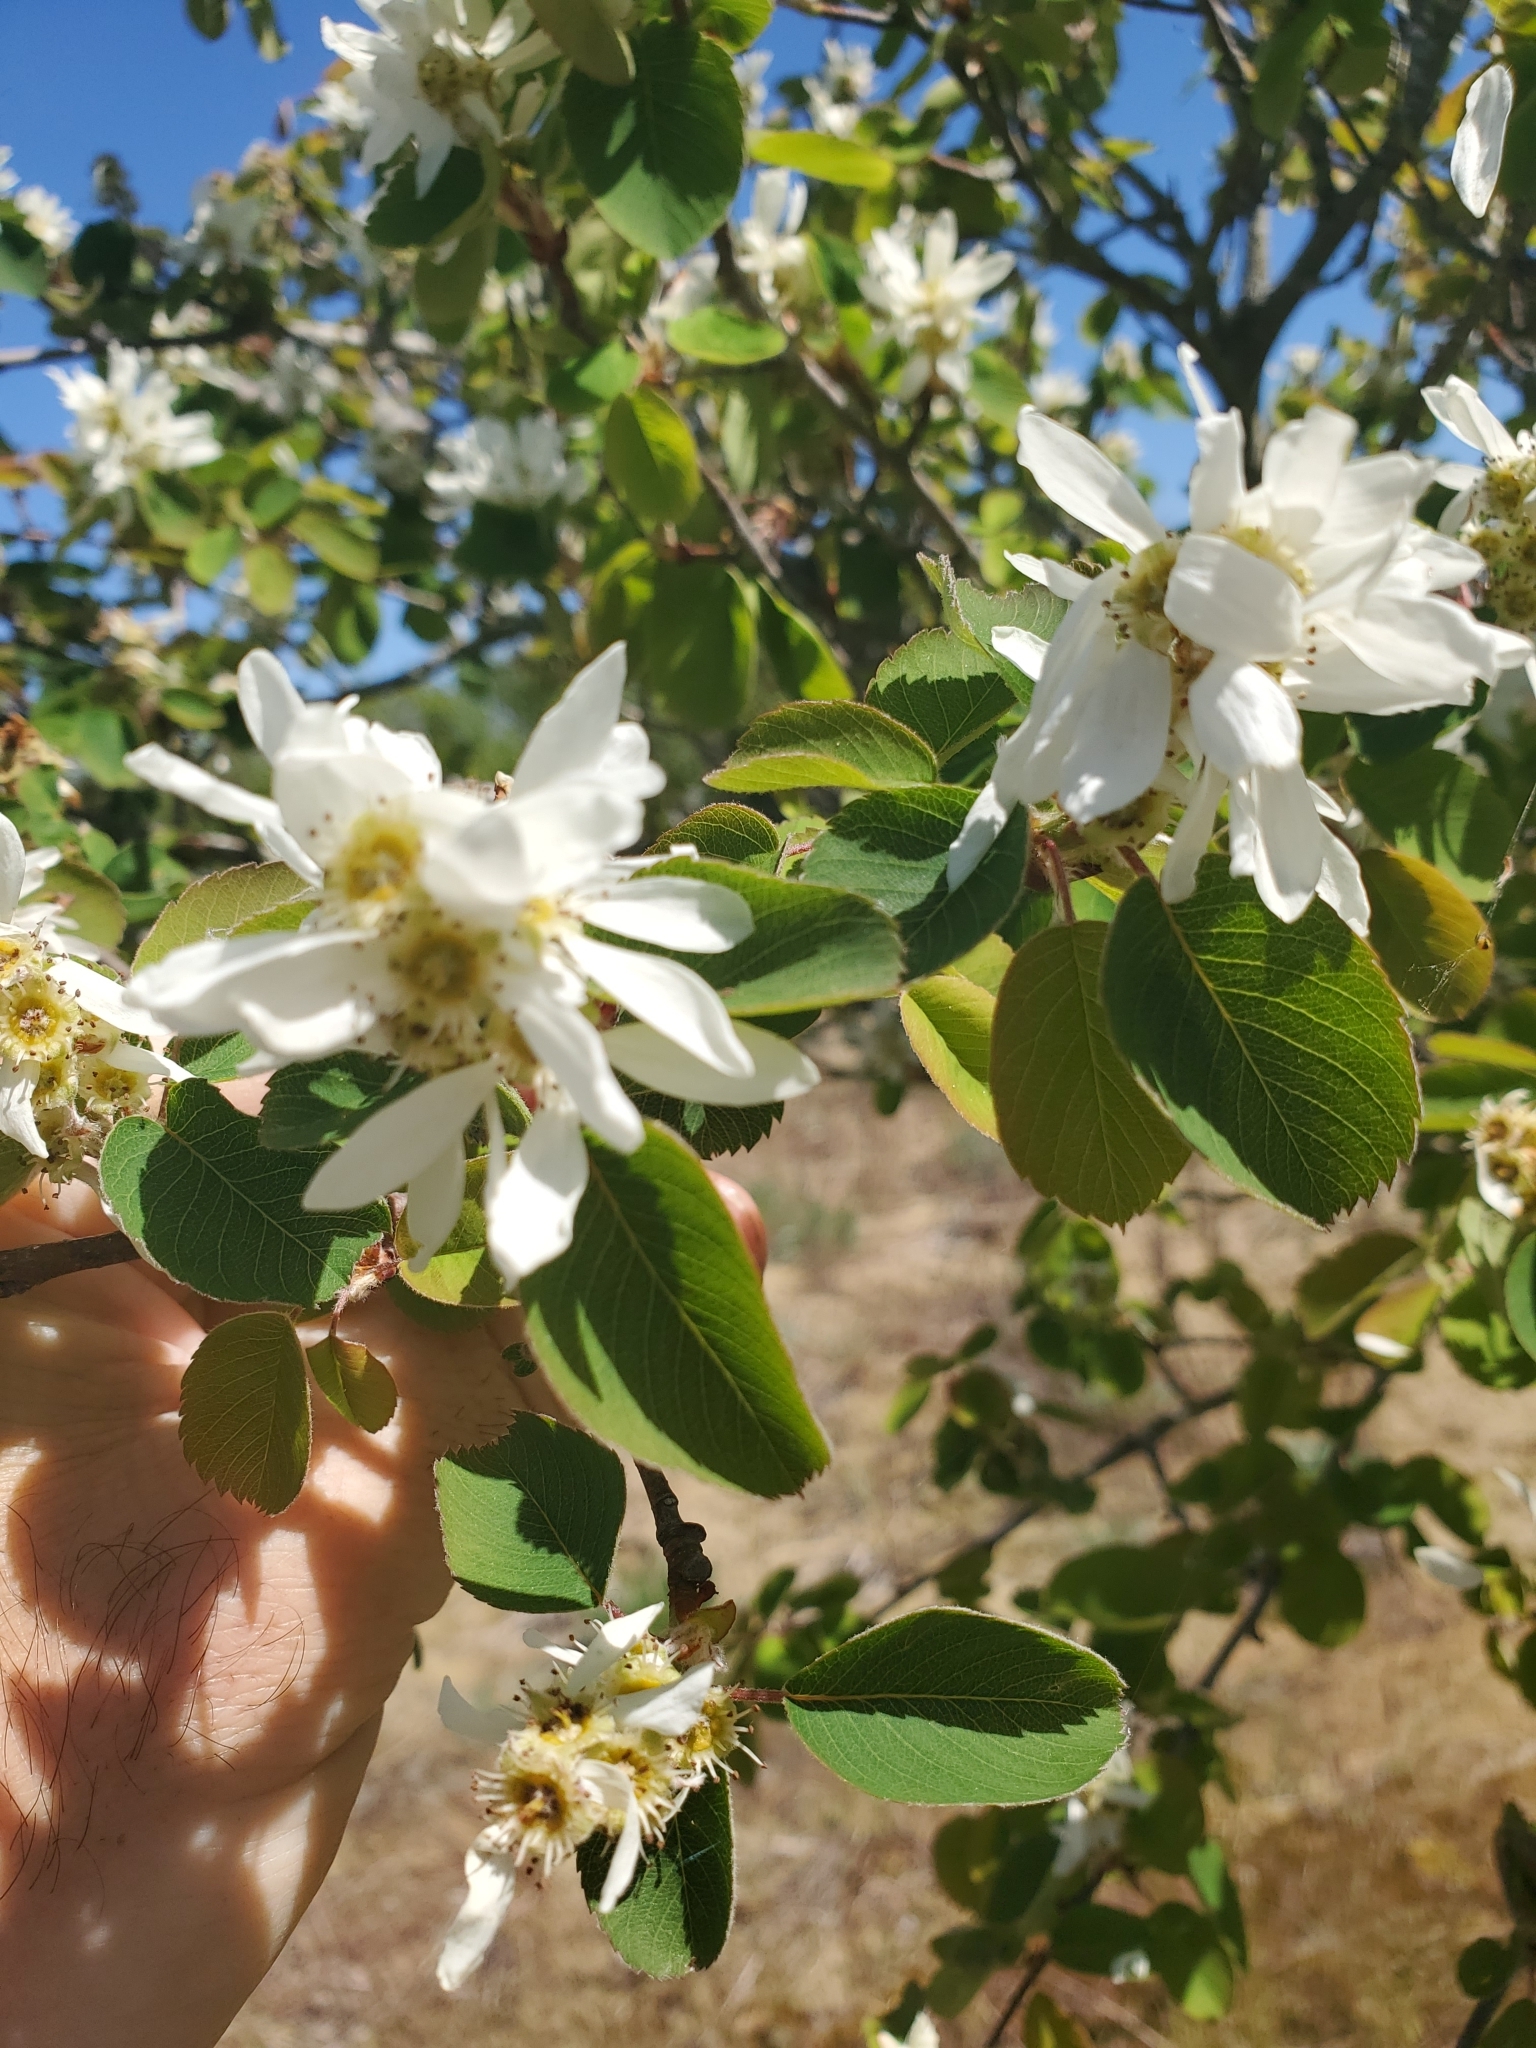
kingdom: Plantae
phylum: Tracheophyta
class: Magnoliopsida
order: Rosales
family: Rosaceae
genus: Amelanchier
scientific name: Amelanchier alnifolia
